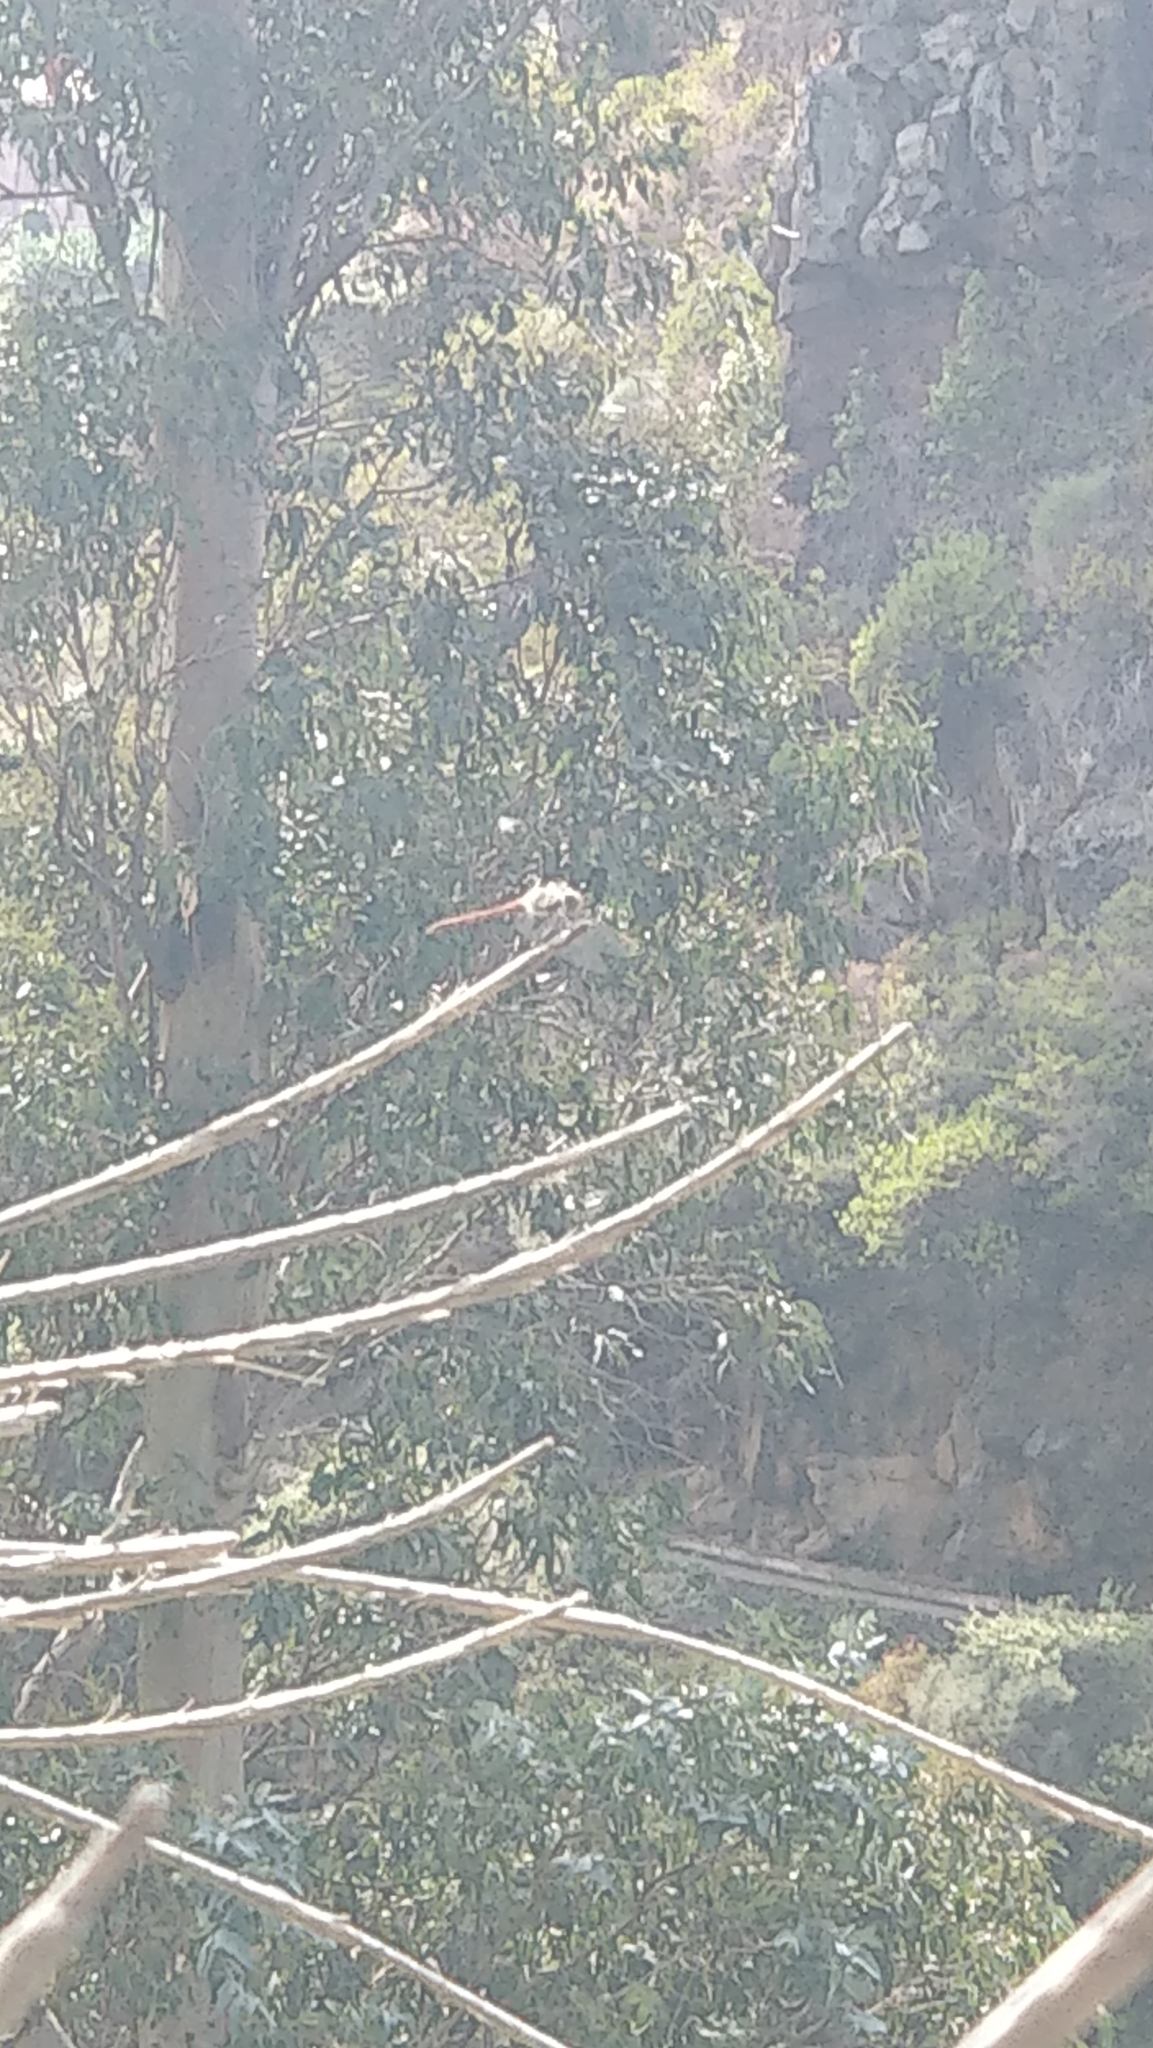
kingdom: Animalia
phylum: Arthropoda
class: Insecta
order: Odonata
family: Libellulidae
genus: Sympetrum
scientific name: Sympetrum nigrifemur
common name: Island darter
